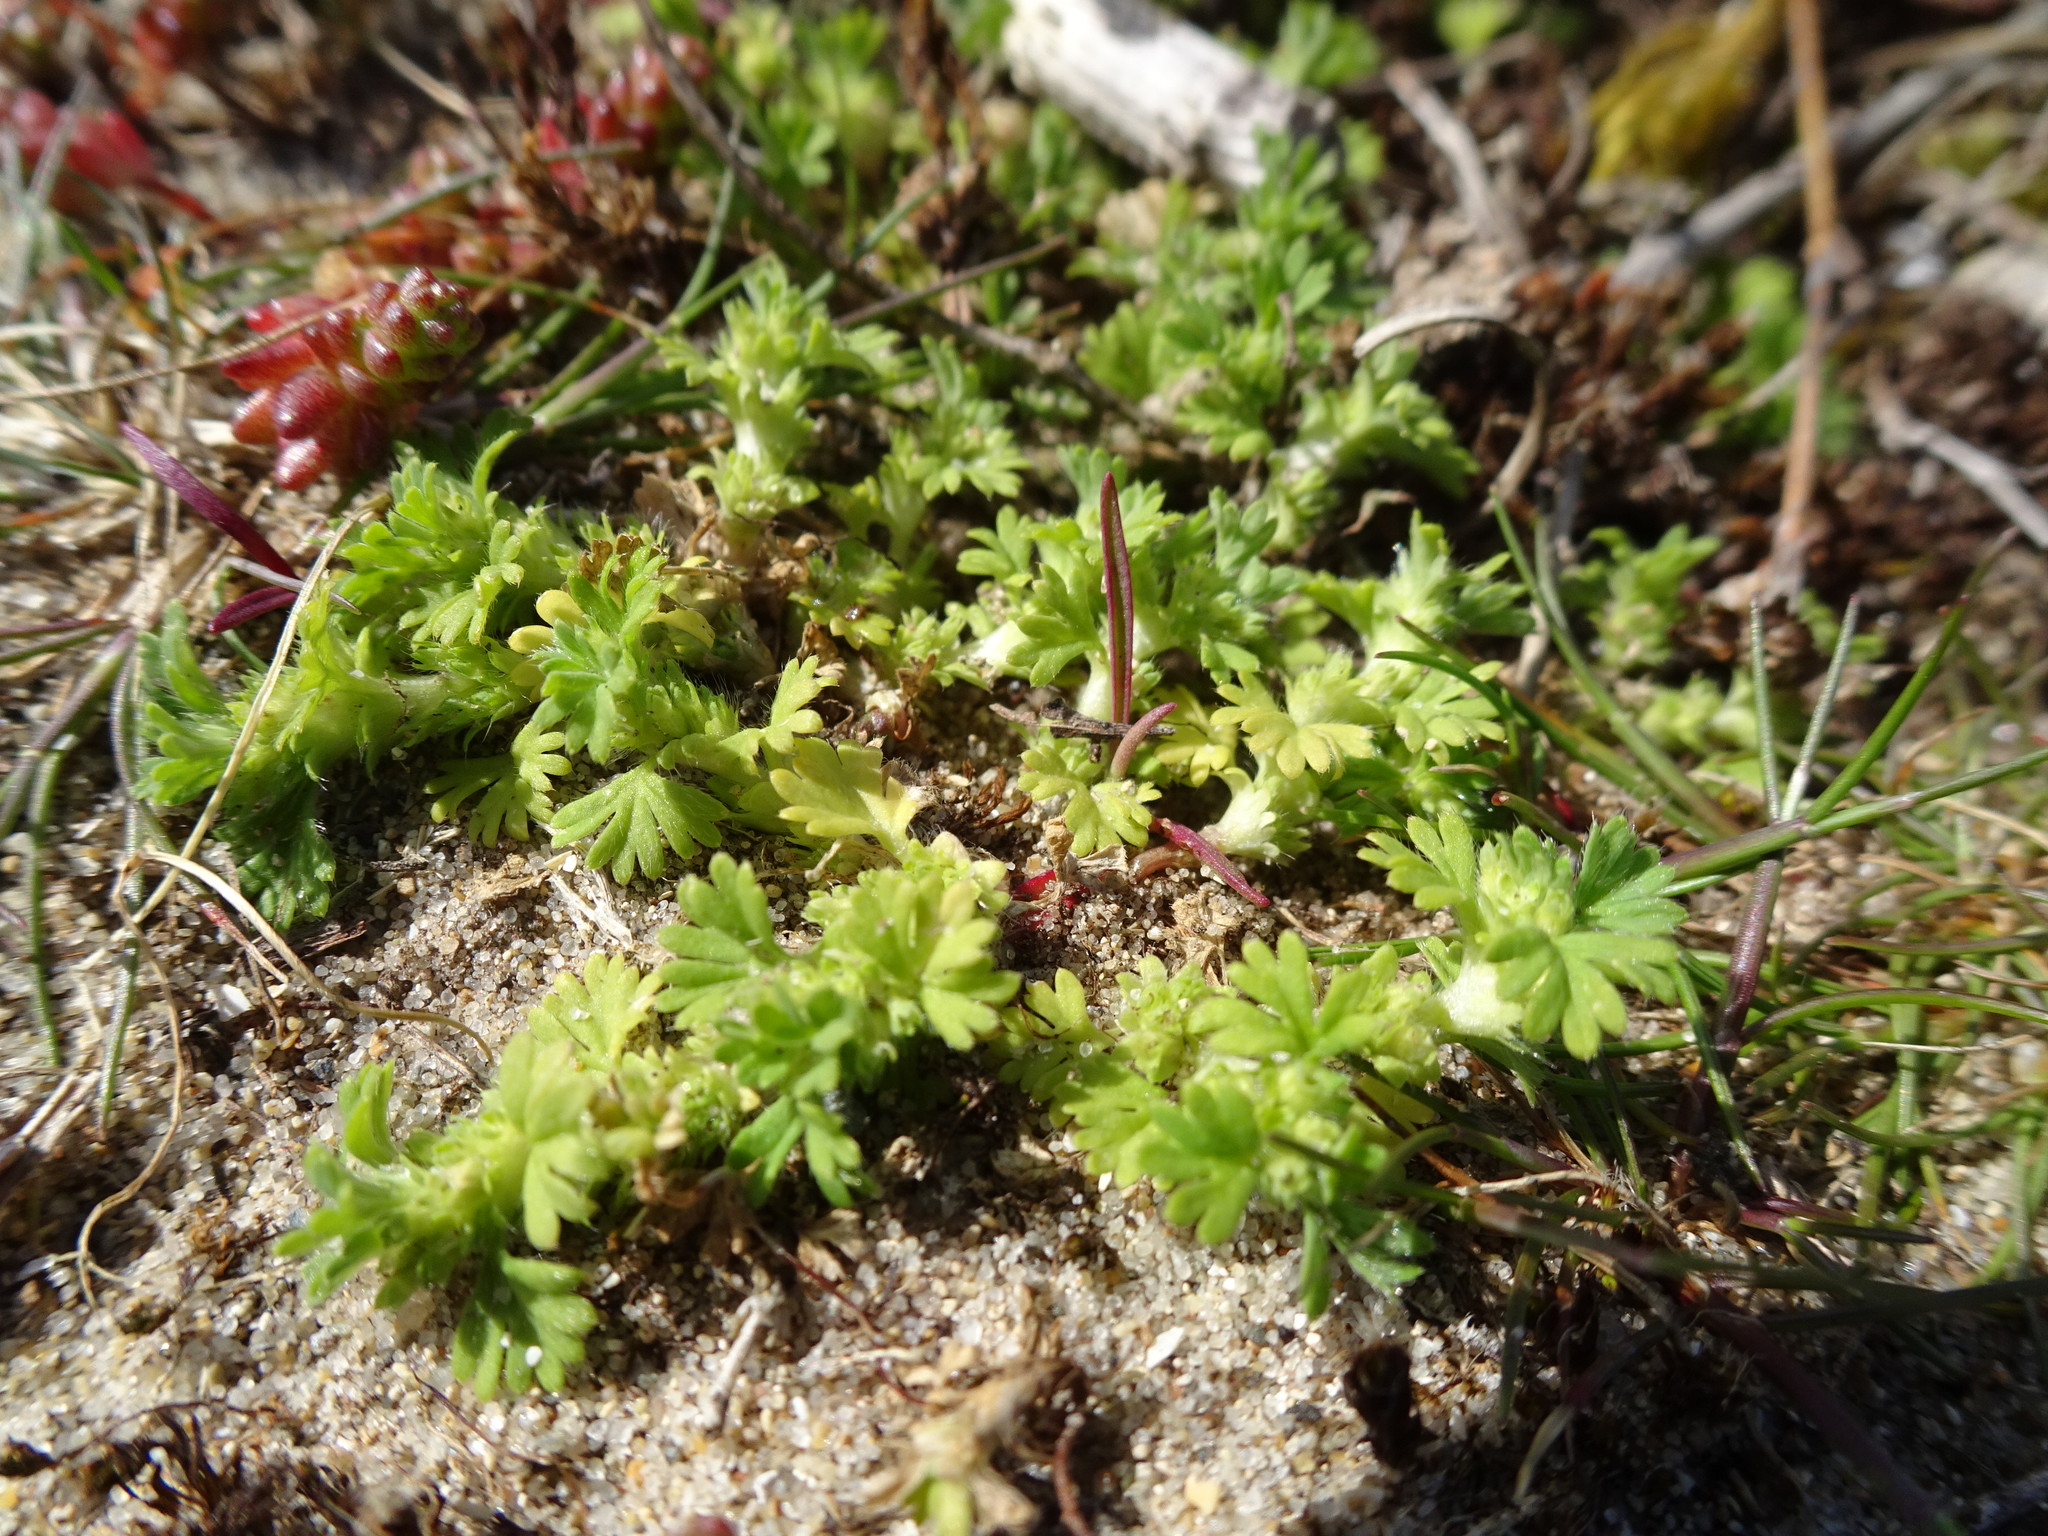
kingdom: Plantae
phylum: Tracheophyta
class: Magnoliopsida
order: Rosales
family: Rosaceae
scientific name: Rosaceae
